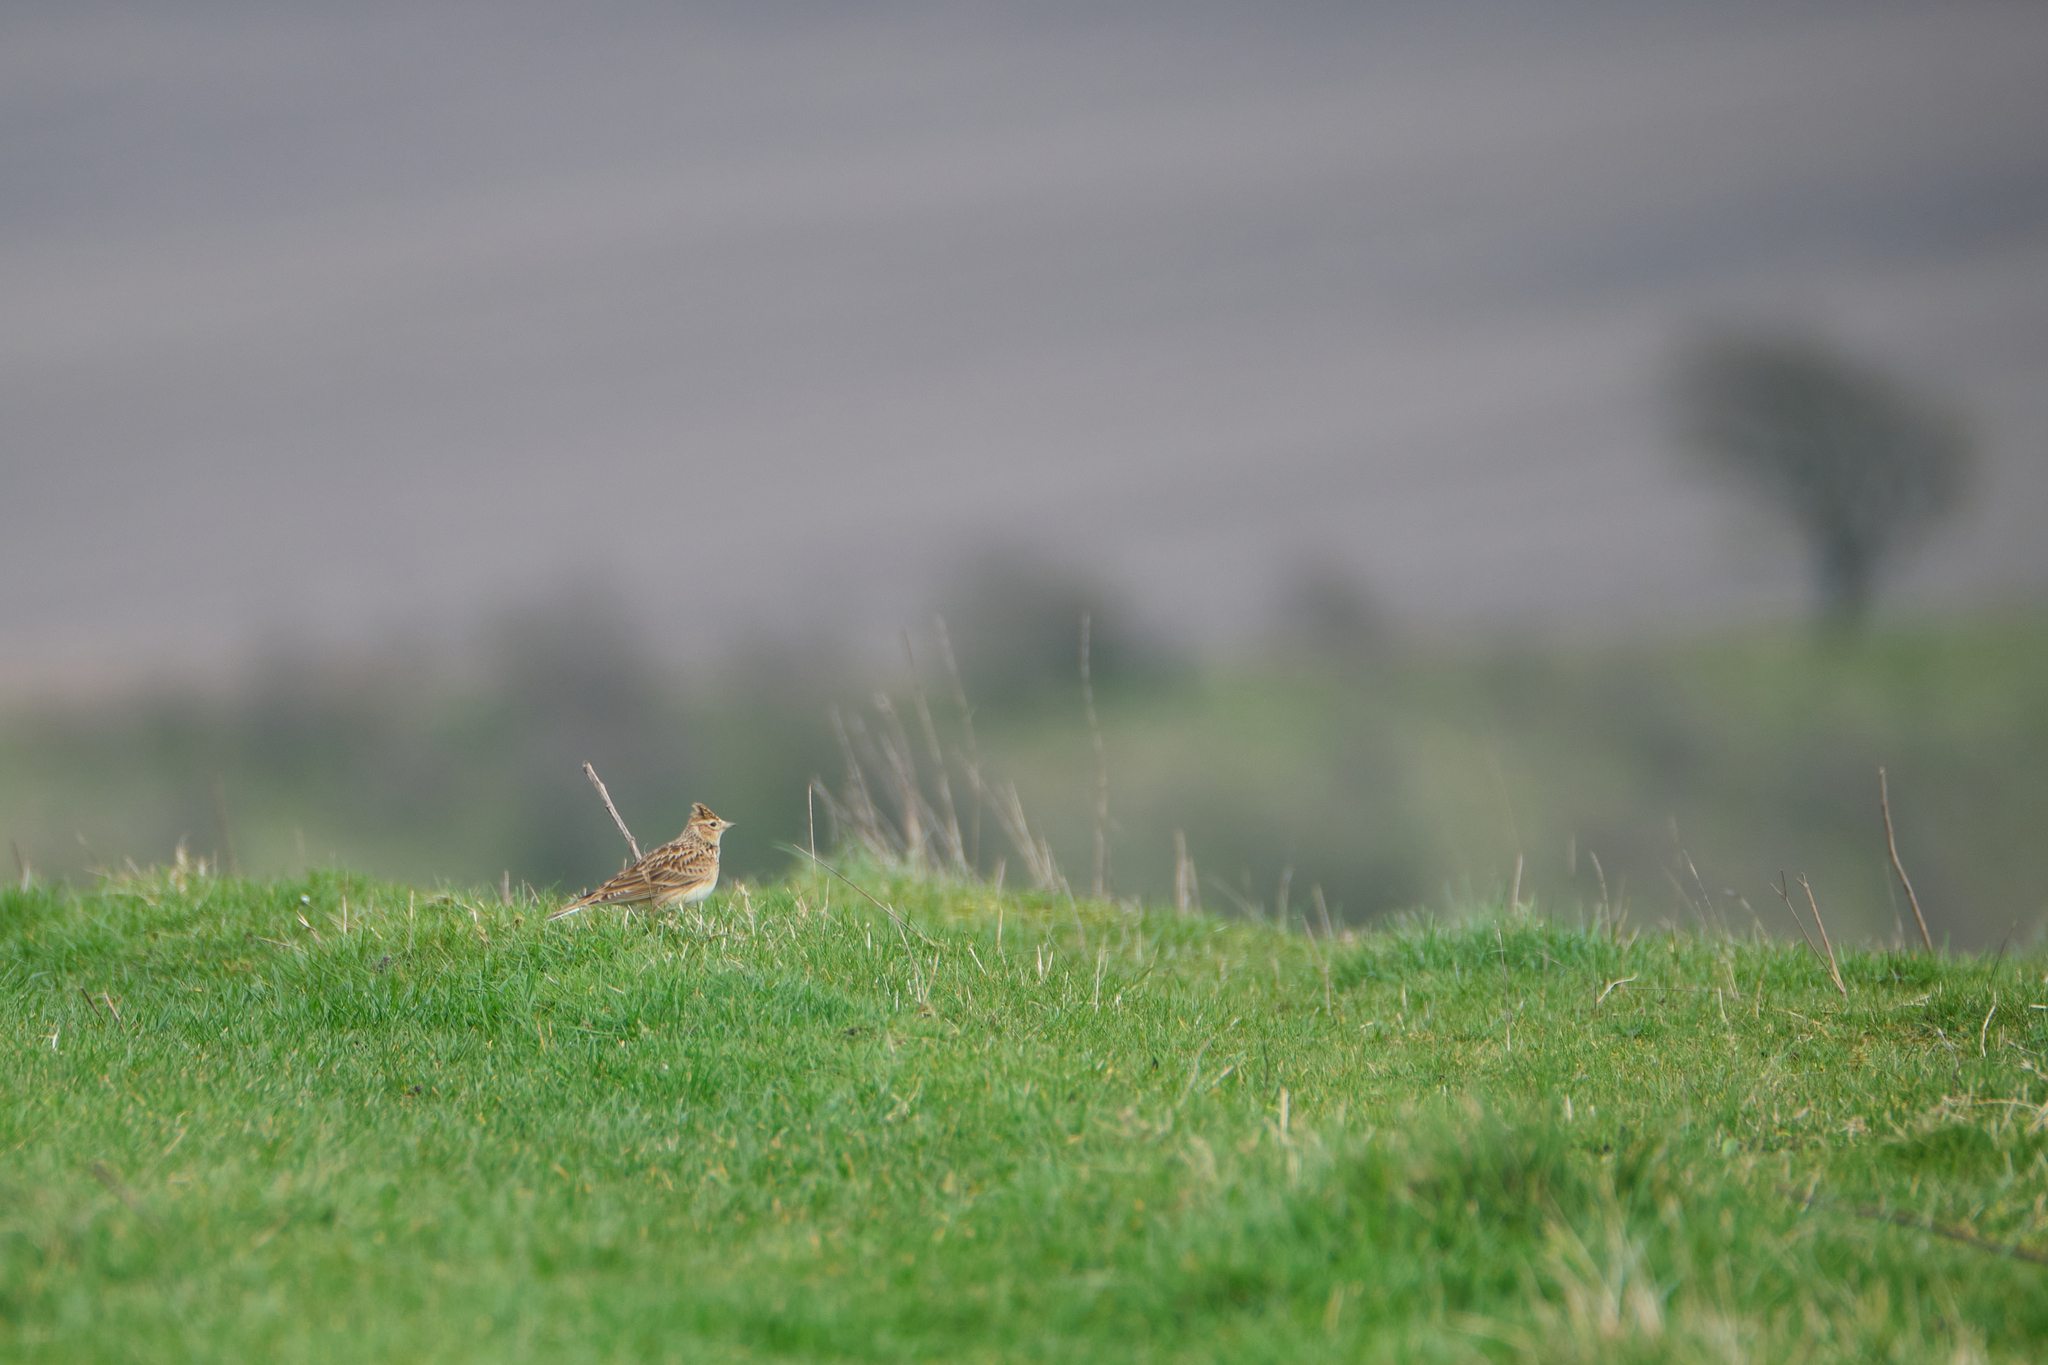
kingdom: Animalia
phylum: Chordata
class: Aves
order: Passeriformes
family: Alaudidae
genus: Alauda
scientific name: Alauda arvensis
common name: Eurasian skylark
